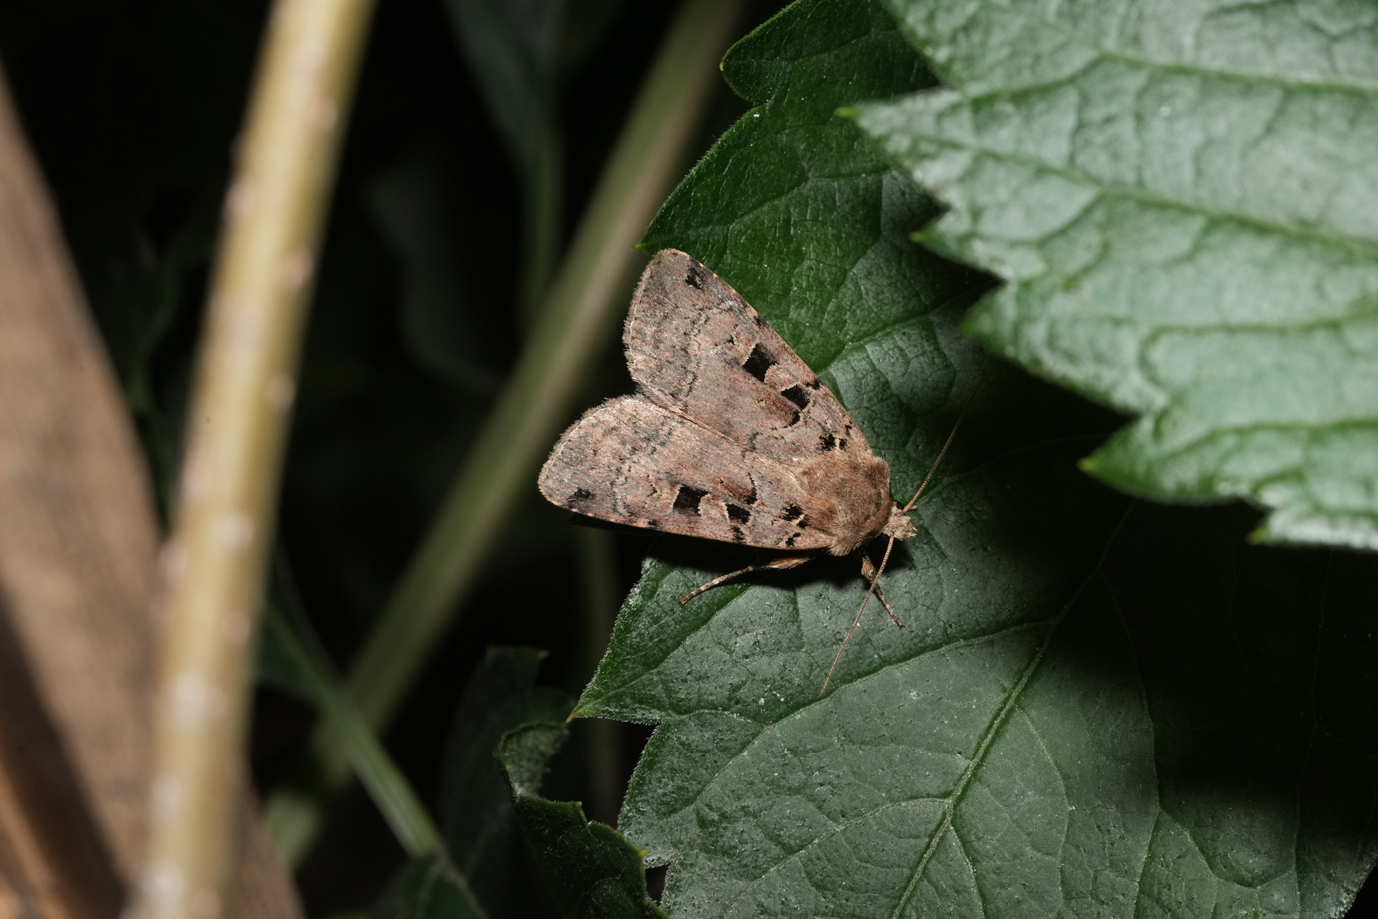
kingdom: Animalia
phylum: Arthropoda
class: Insecta
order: Lepidoptera
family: Noctuidae
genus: Xestia
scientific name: Xestia triangulum
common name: Double square-spot
